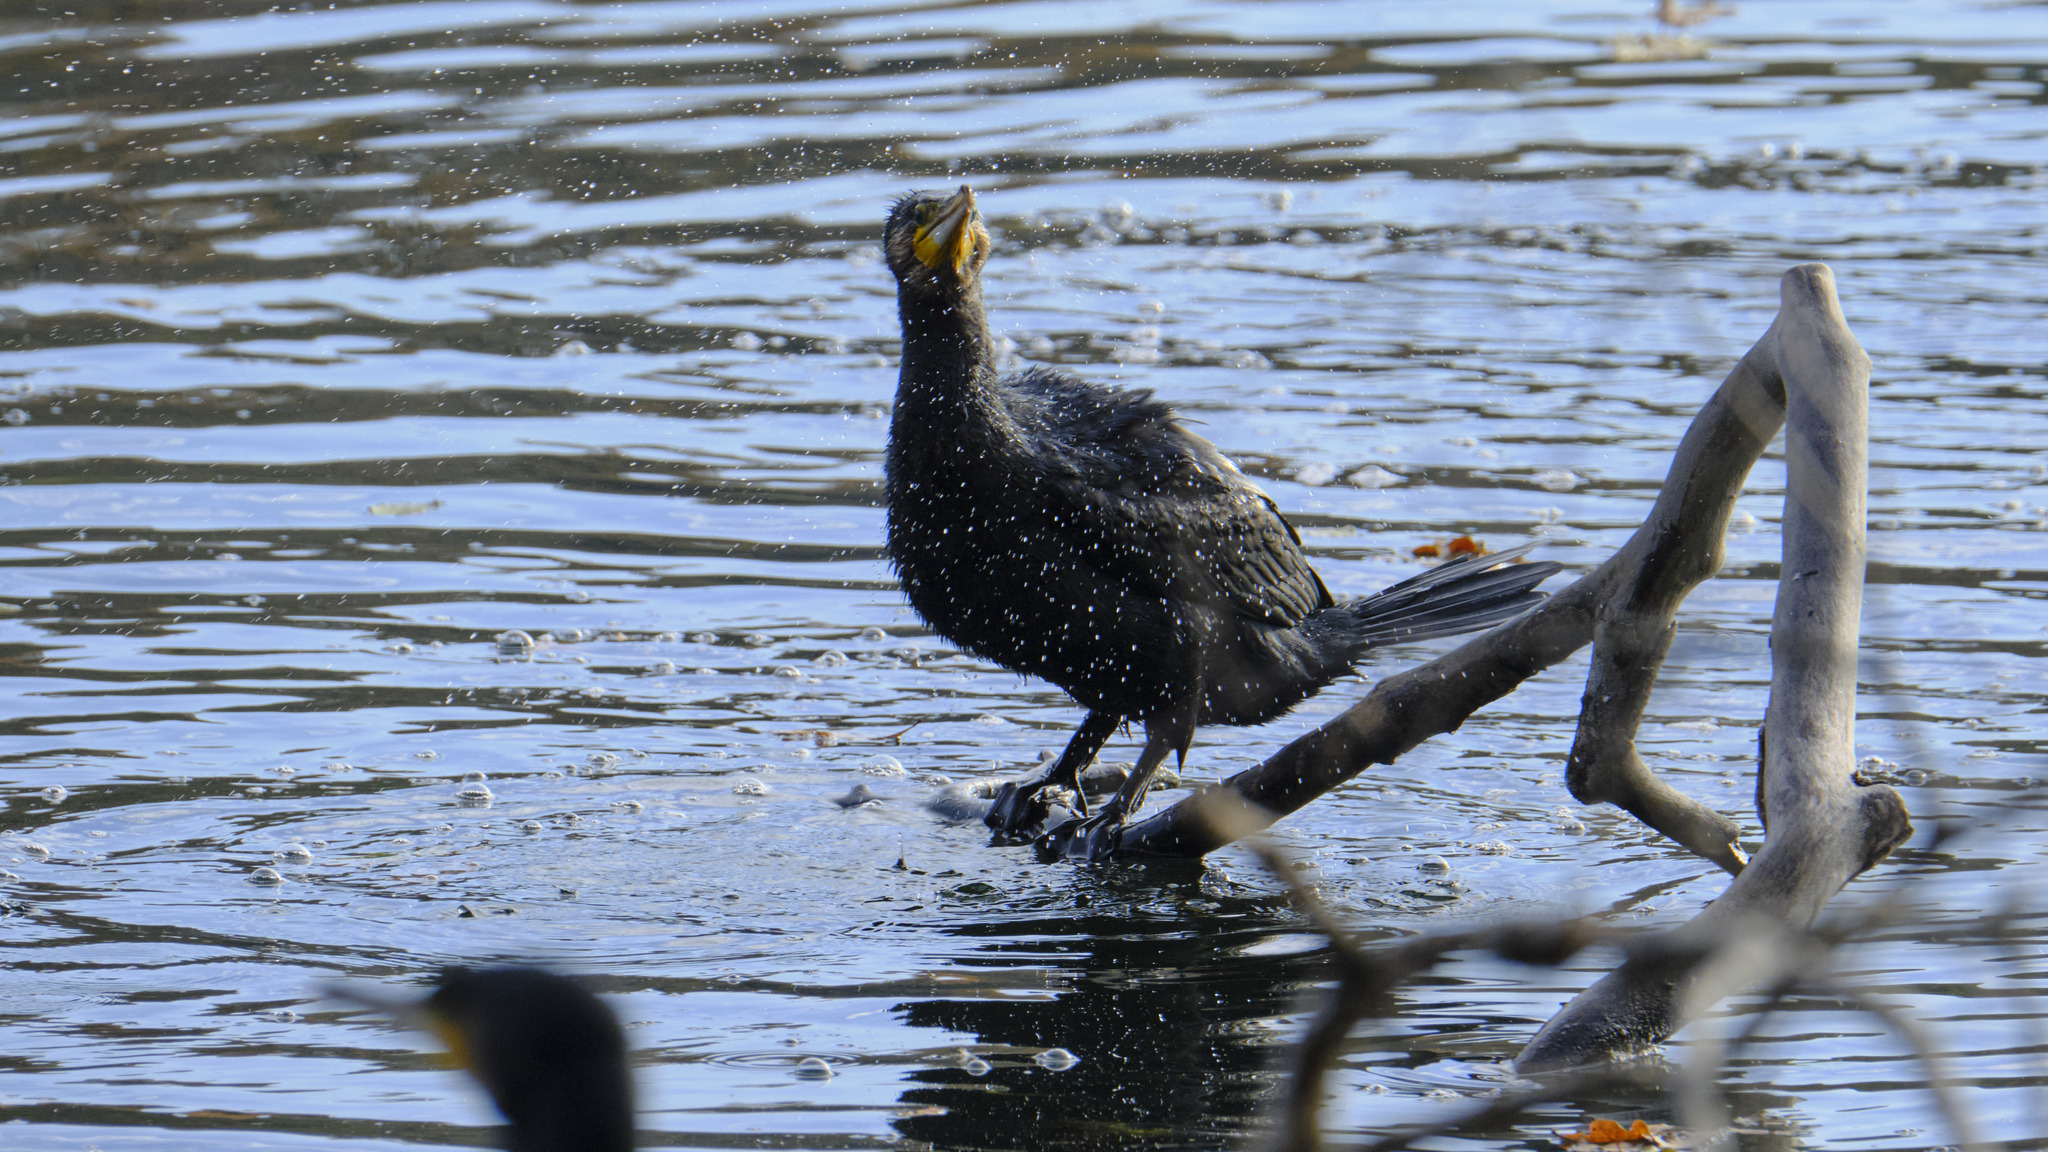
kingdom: Animalia
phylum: Chordata
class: Aves
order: Suliformes
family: Phalacrocoracidae
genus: Phalacrocorax
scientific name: Phalacrocorax carbo
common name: Great cormorant
